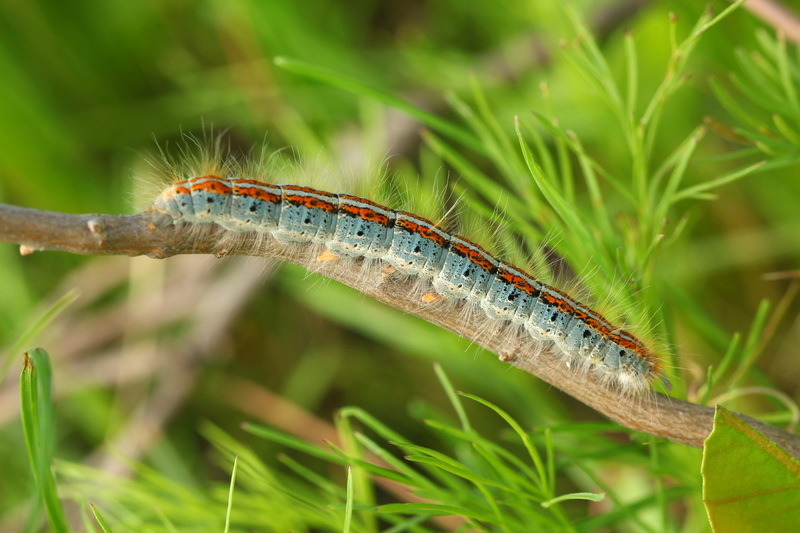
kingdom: Animalia
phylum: Arthropoda
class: Insecta
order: Lepidoptera
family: Lasiocampidae
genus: Malacosoma
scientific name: Malacosoma castrense
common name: Ground lackey
